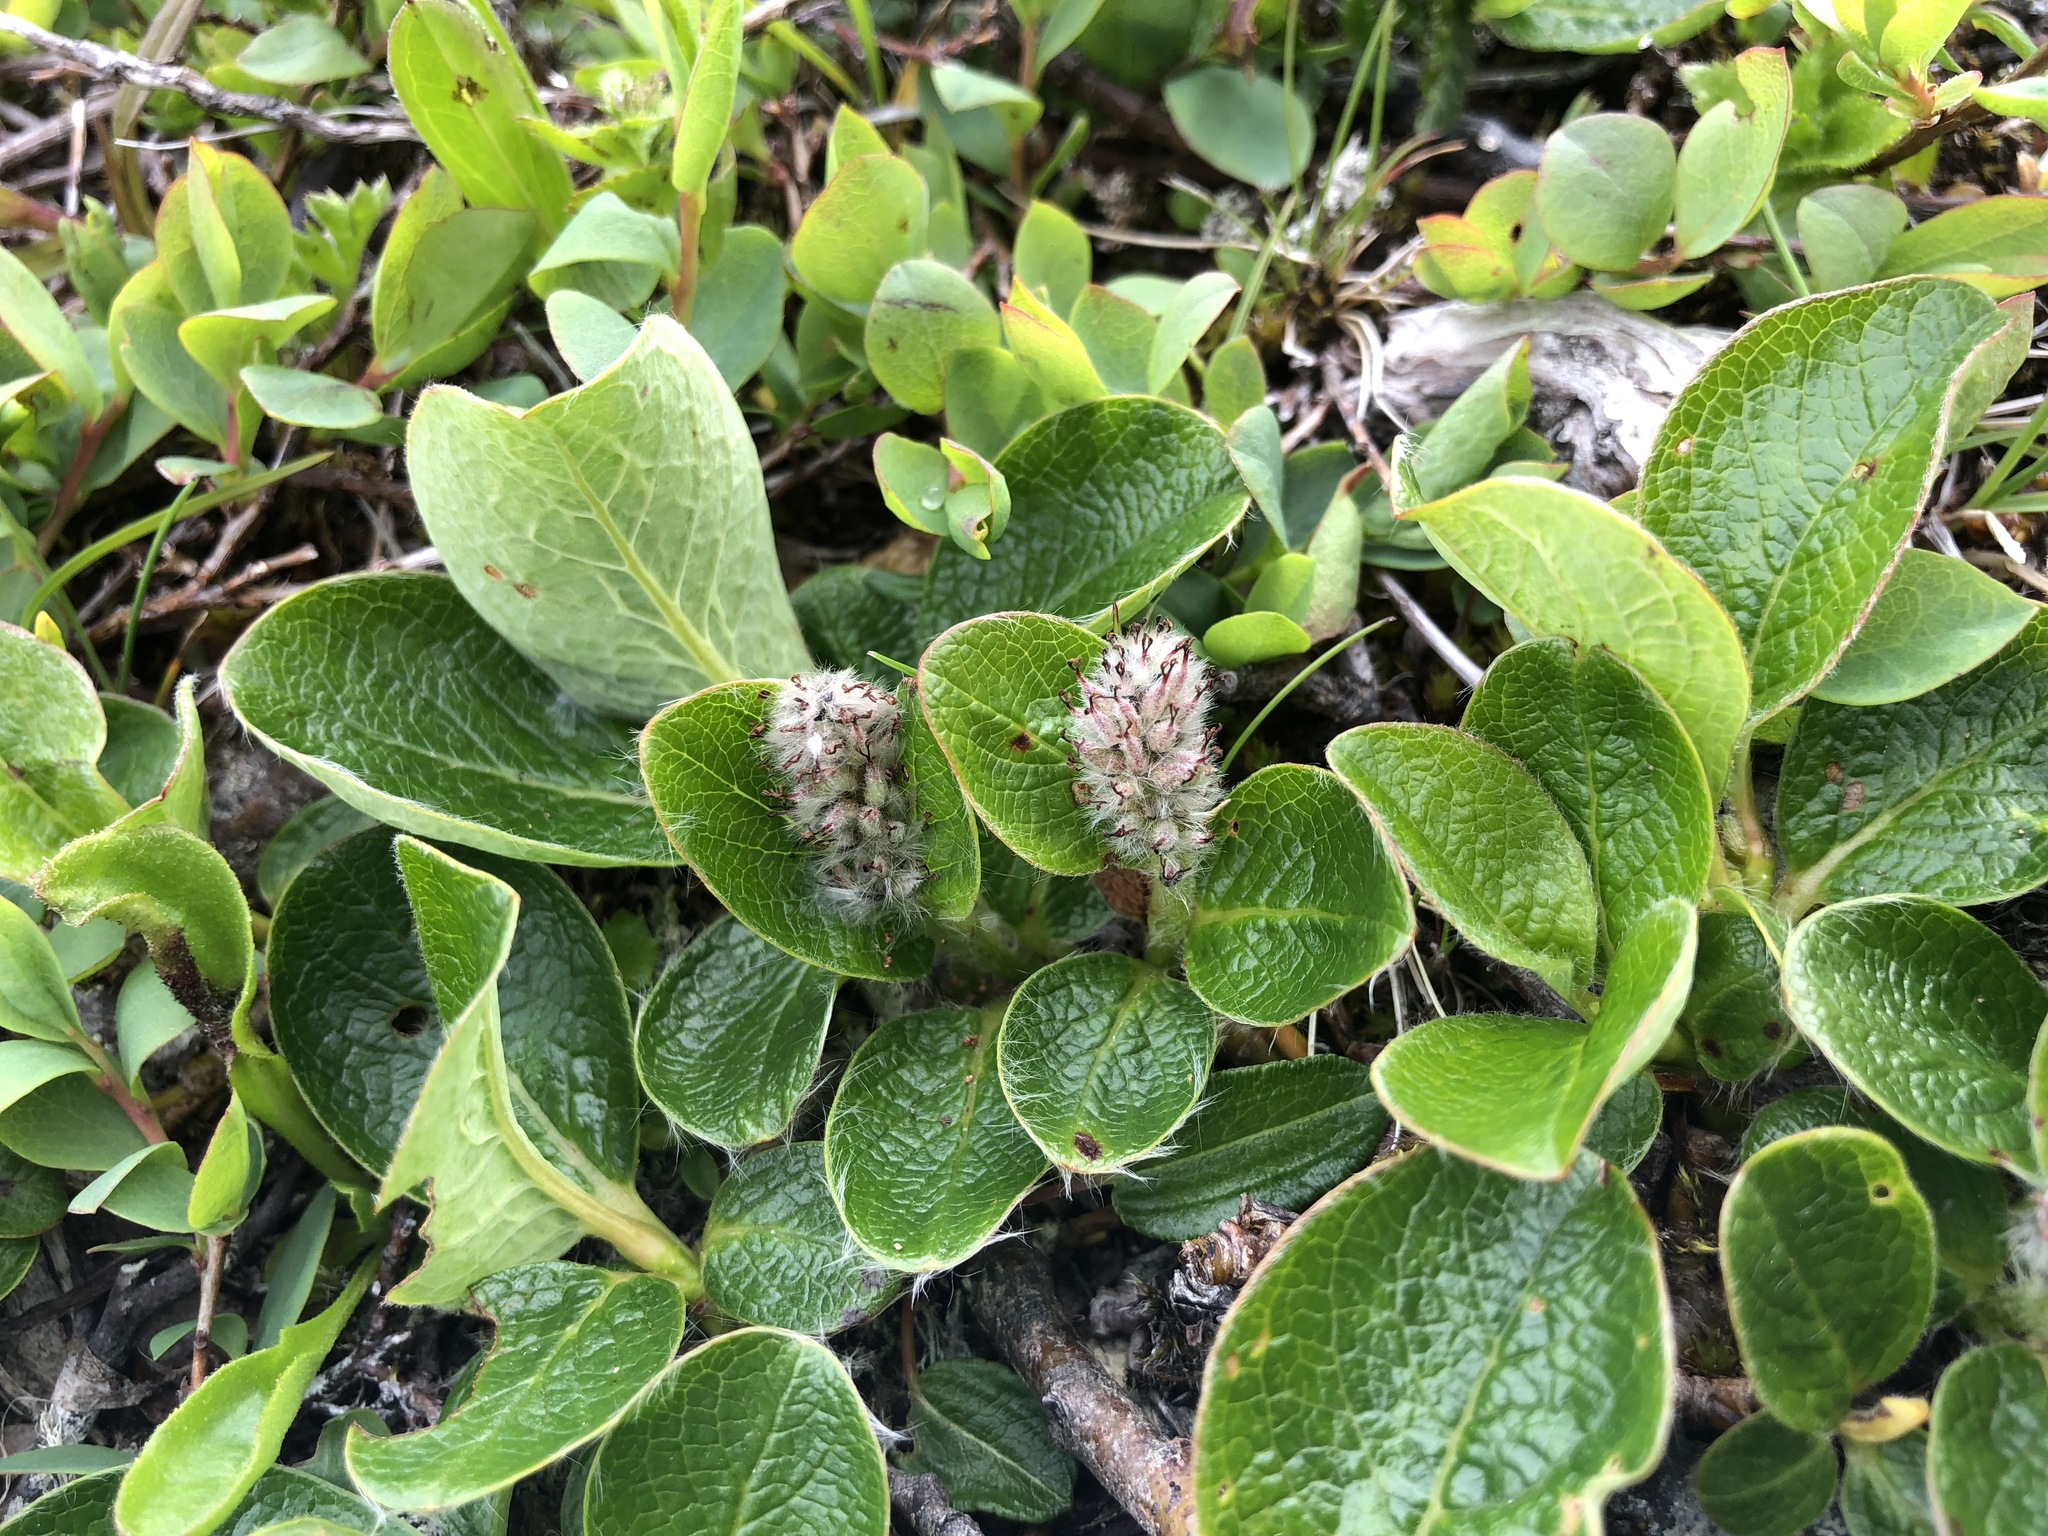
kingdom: Plantae
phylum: Tracheophyta
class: Magnoliopsida
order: Malpighiales
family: Salicaceae
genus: Salix
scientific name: Salix arctica
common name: Arctic willow
